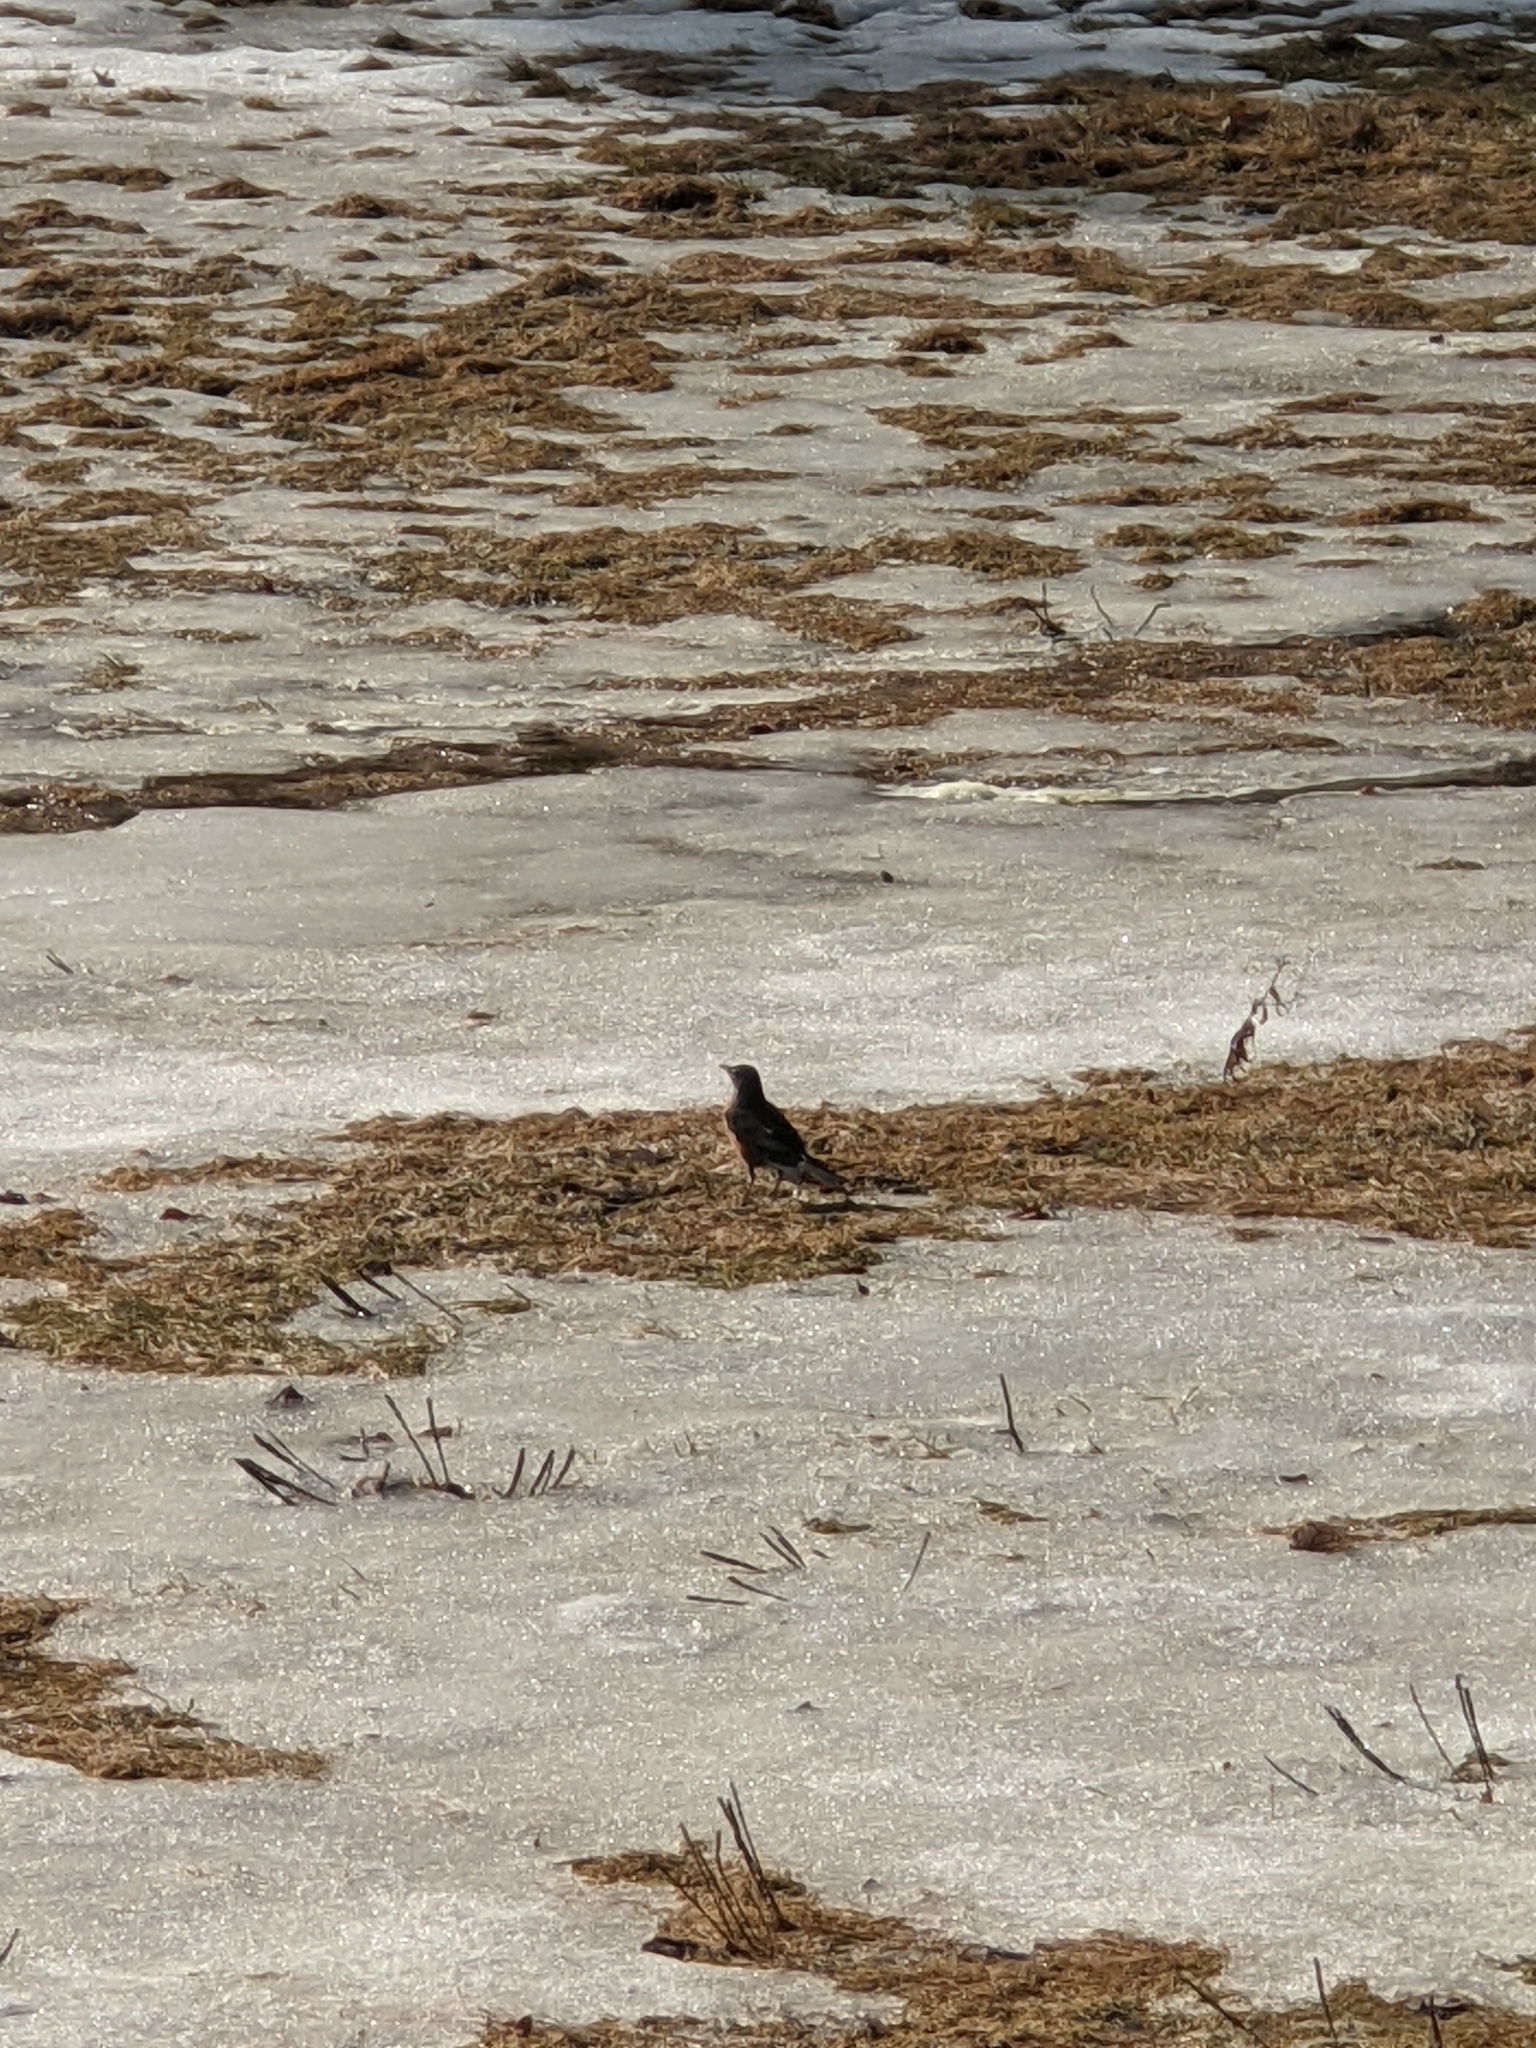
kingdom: Animalia
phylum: Chordata
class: Aves
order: Passeriformes
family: Turdidae
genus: Turdus
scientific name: Turdus migratorius
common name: American robin
